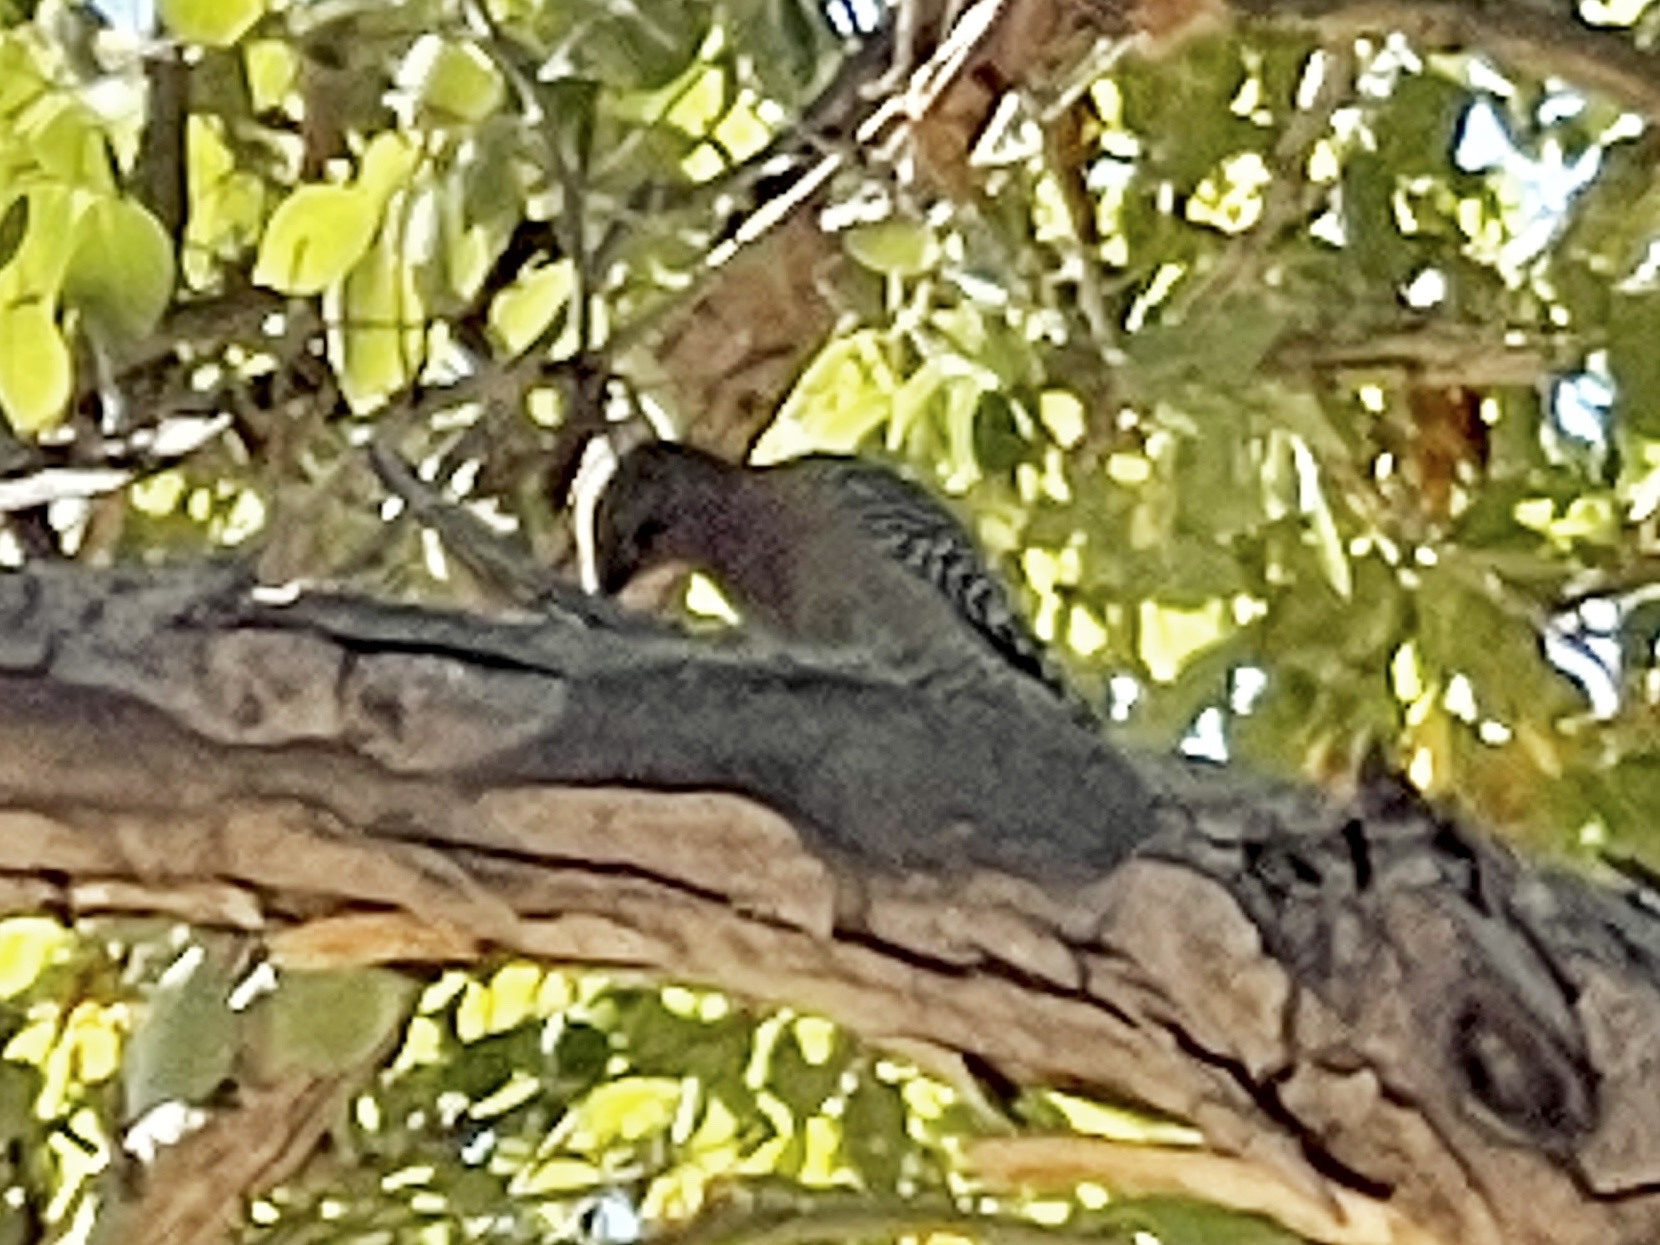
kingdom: Animalia
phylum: Chordata
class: Aves
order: Piciformes
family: Picidae
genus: Melanerpes
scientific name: Melanerpes uropygialis
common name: Gila woodpecker
